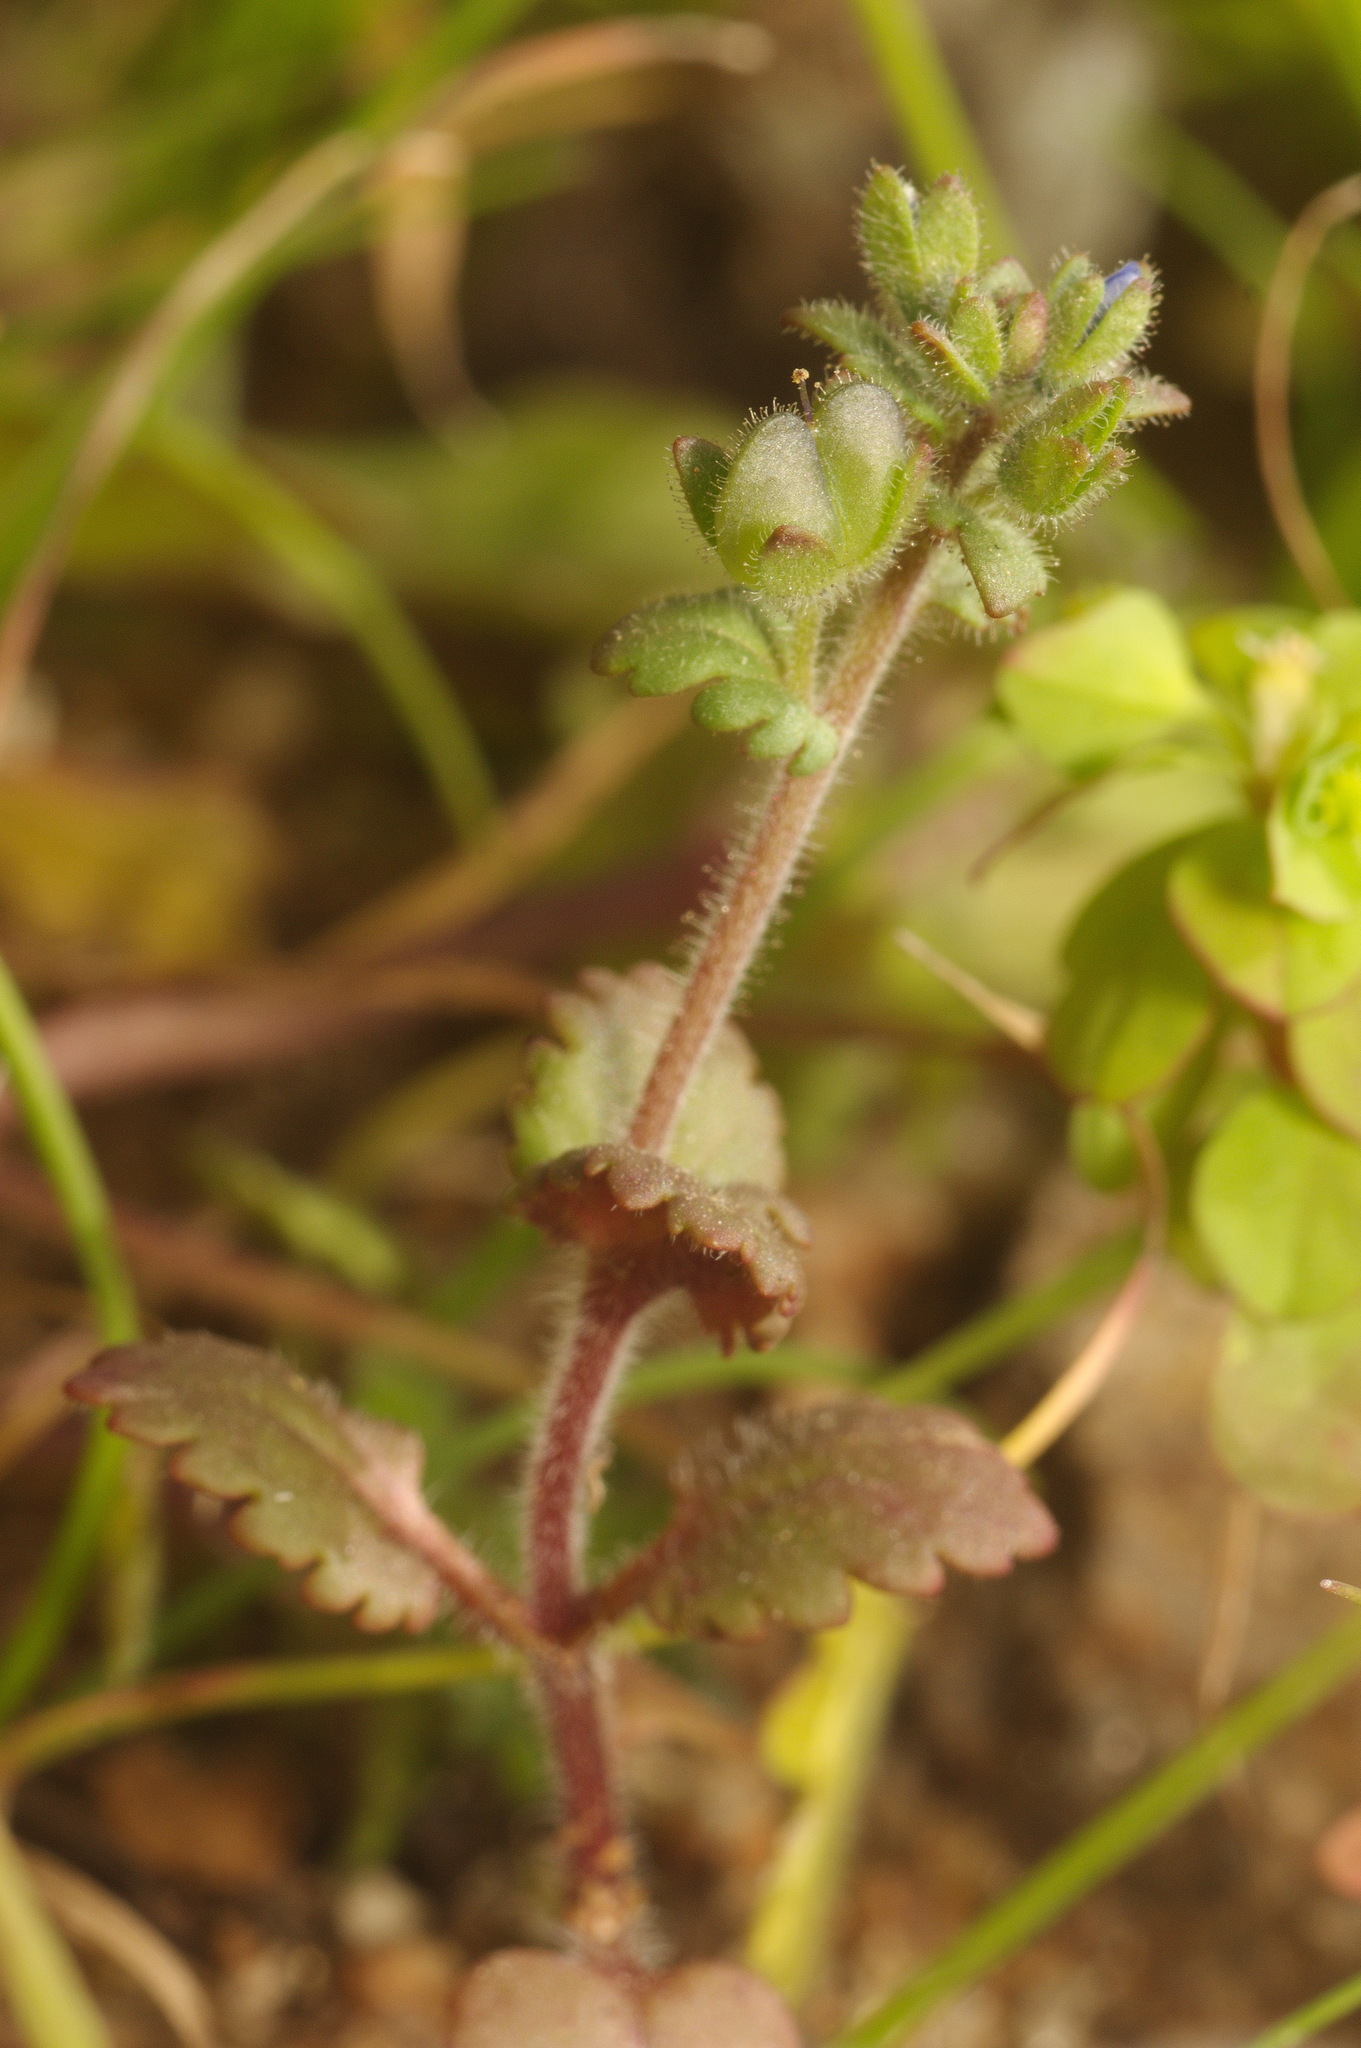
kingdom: Plantae
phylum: Tracheophyta
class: Magnoliopsida
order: Lamiales
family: Plantaginaceae
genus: Veronica
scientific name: Veronica praecox
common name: Breckland speedwell
